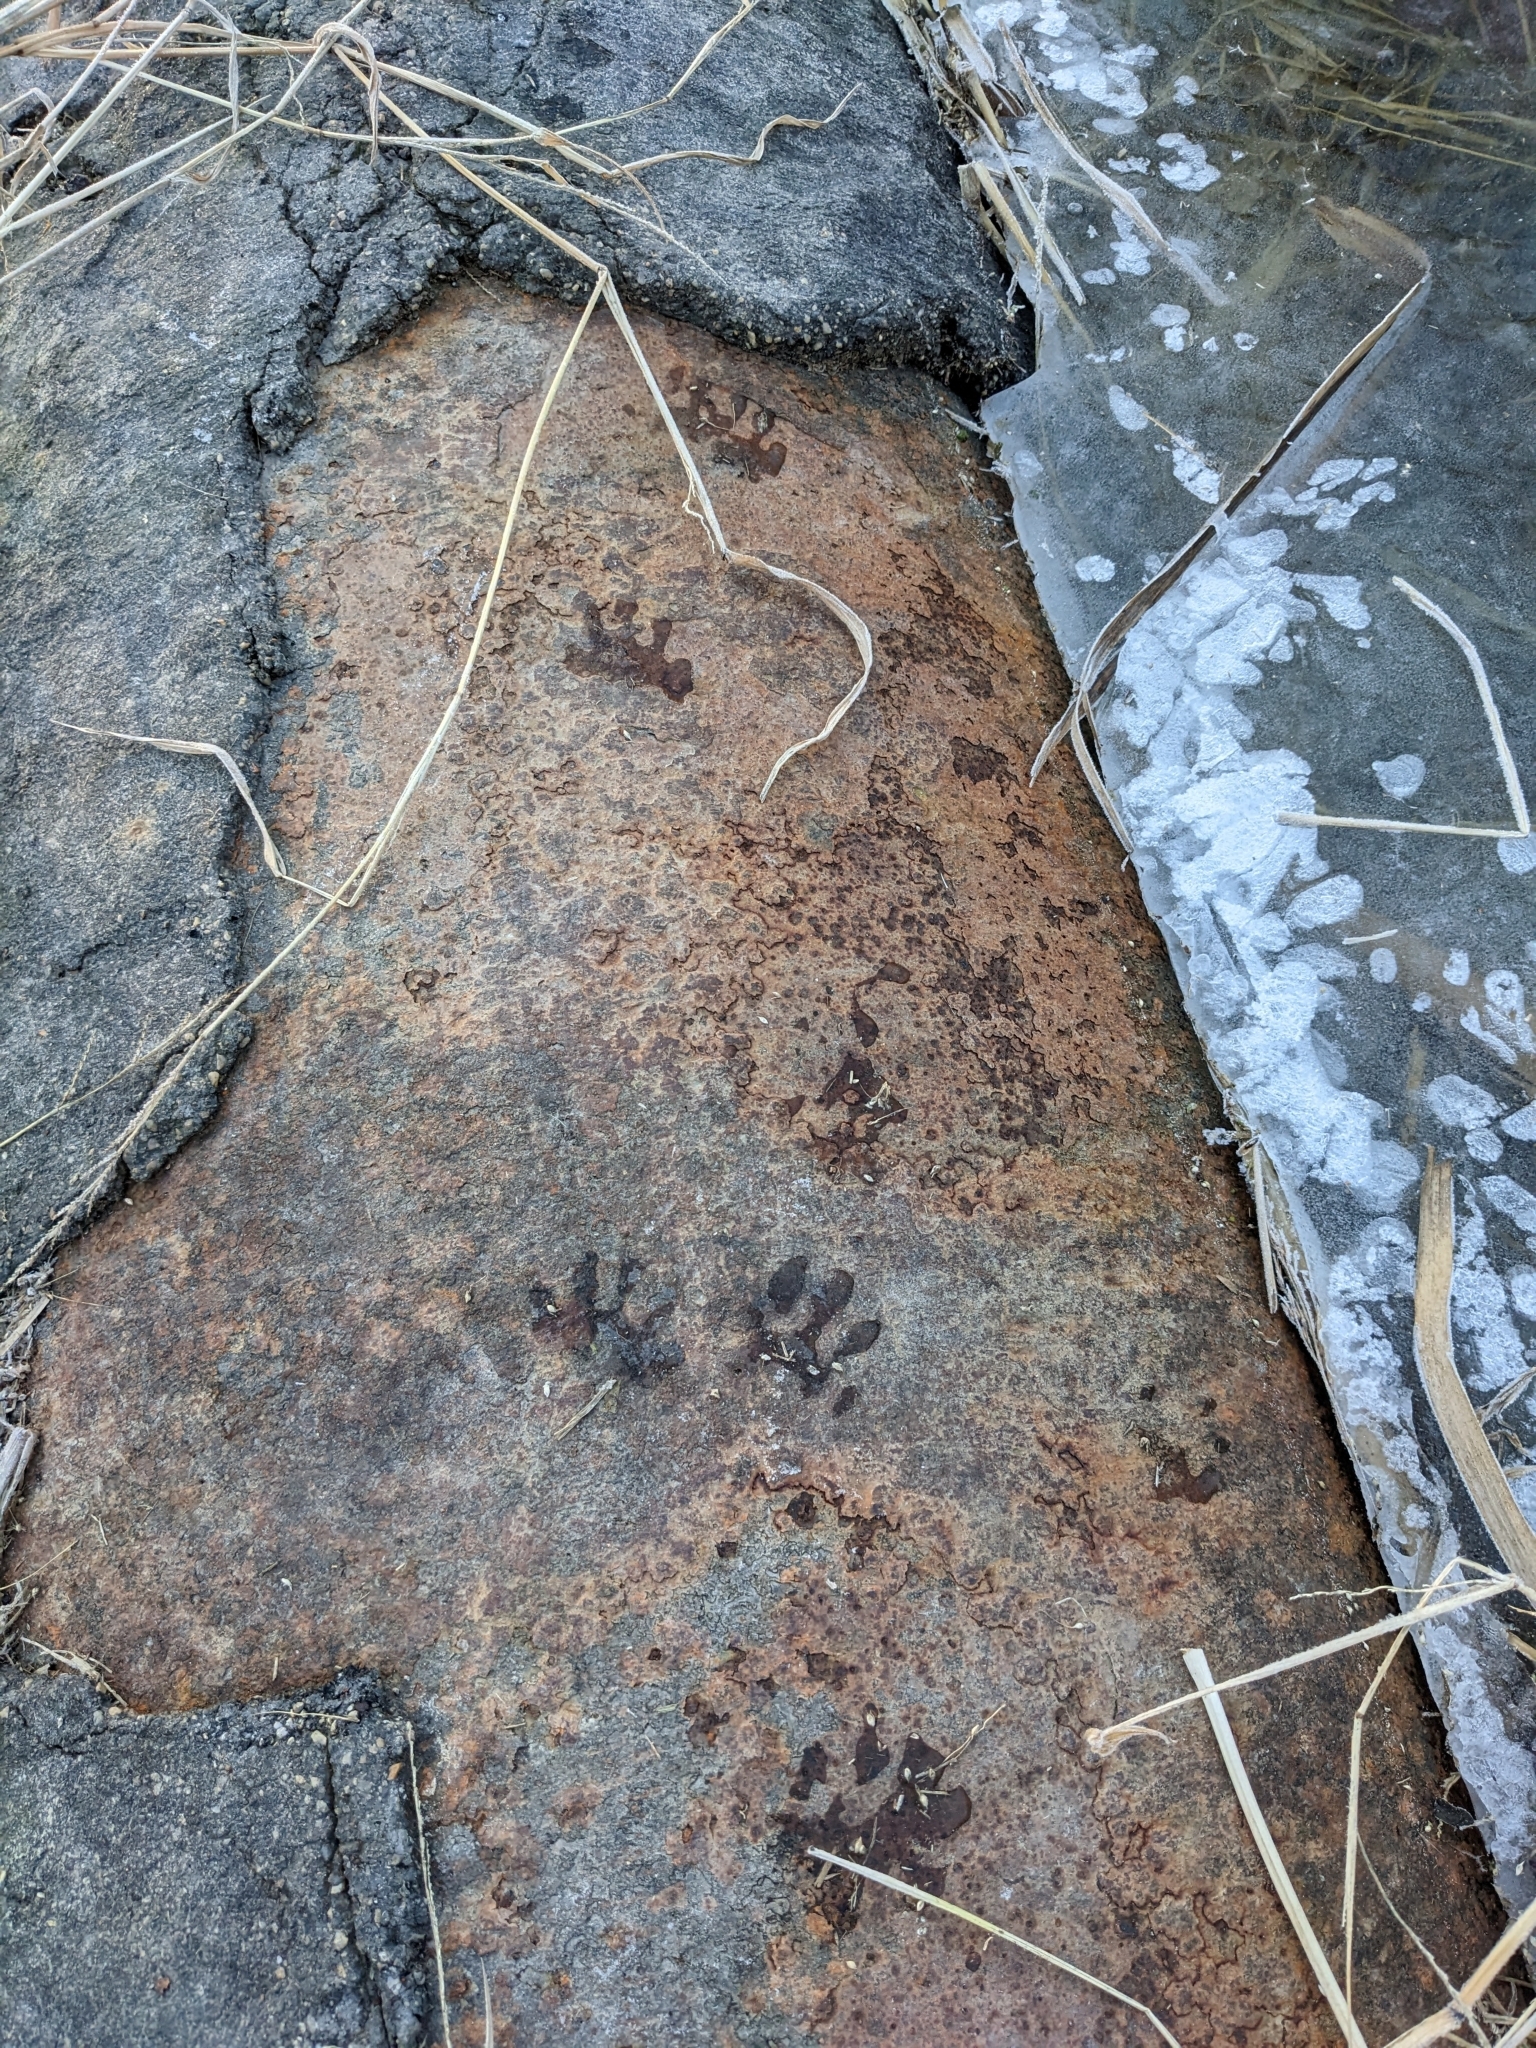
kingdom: Animalia
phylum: Chordata
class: Mammalia
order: Carnivora
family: Procyonidae
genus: Procyon
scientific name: Procyon lotor
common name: Raccoon
